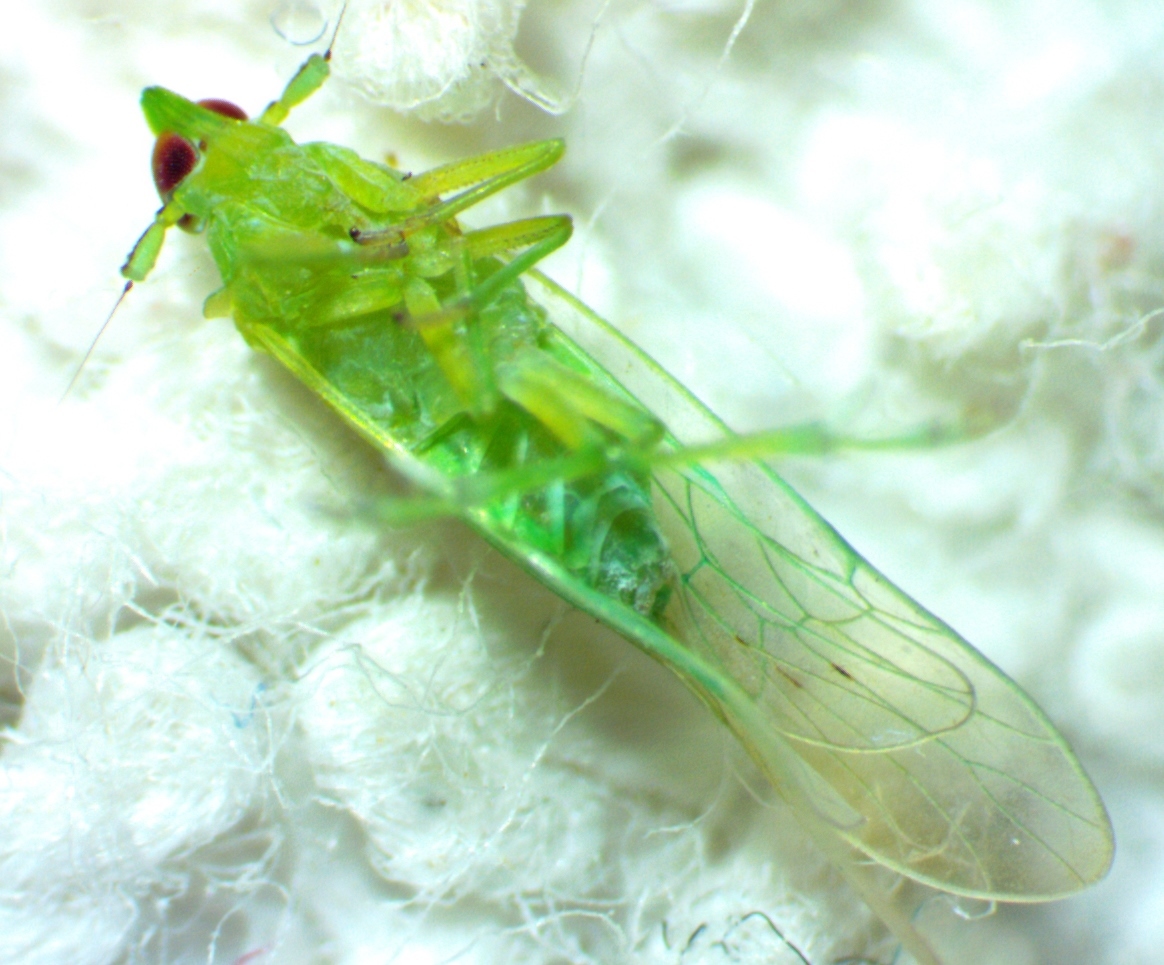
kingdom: Animalia
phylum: Arthropoda
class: Insecta
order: Hemiptera
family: Delphacidae
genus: Saccharosydne
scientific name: Saccharosydne saccharivora
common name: Delphacid planthopper
